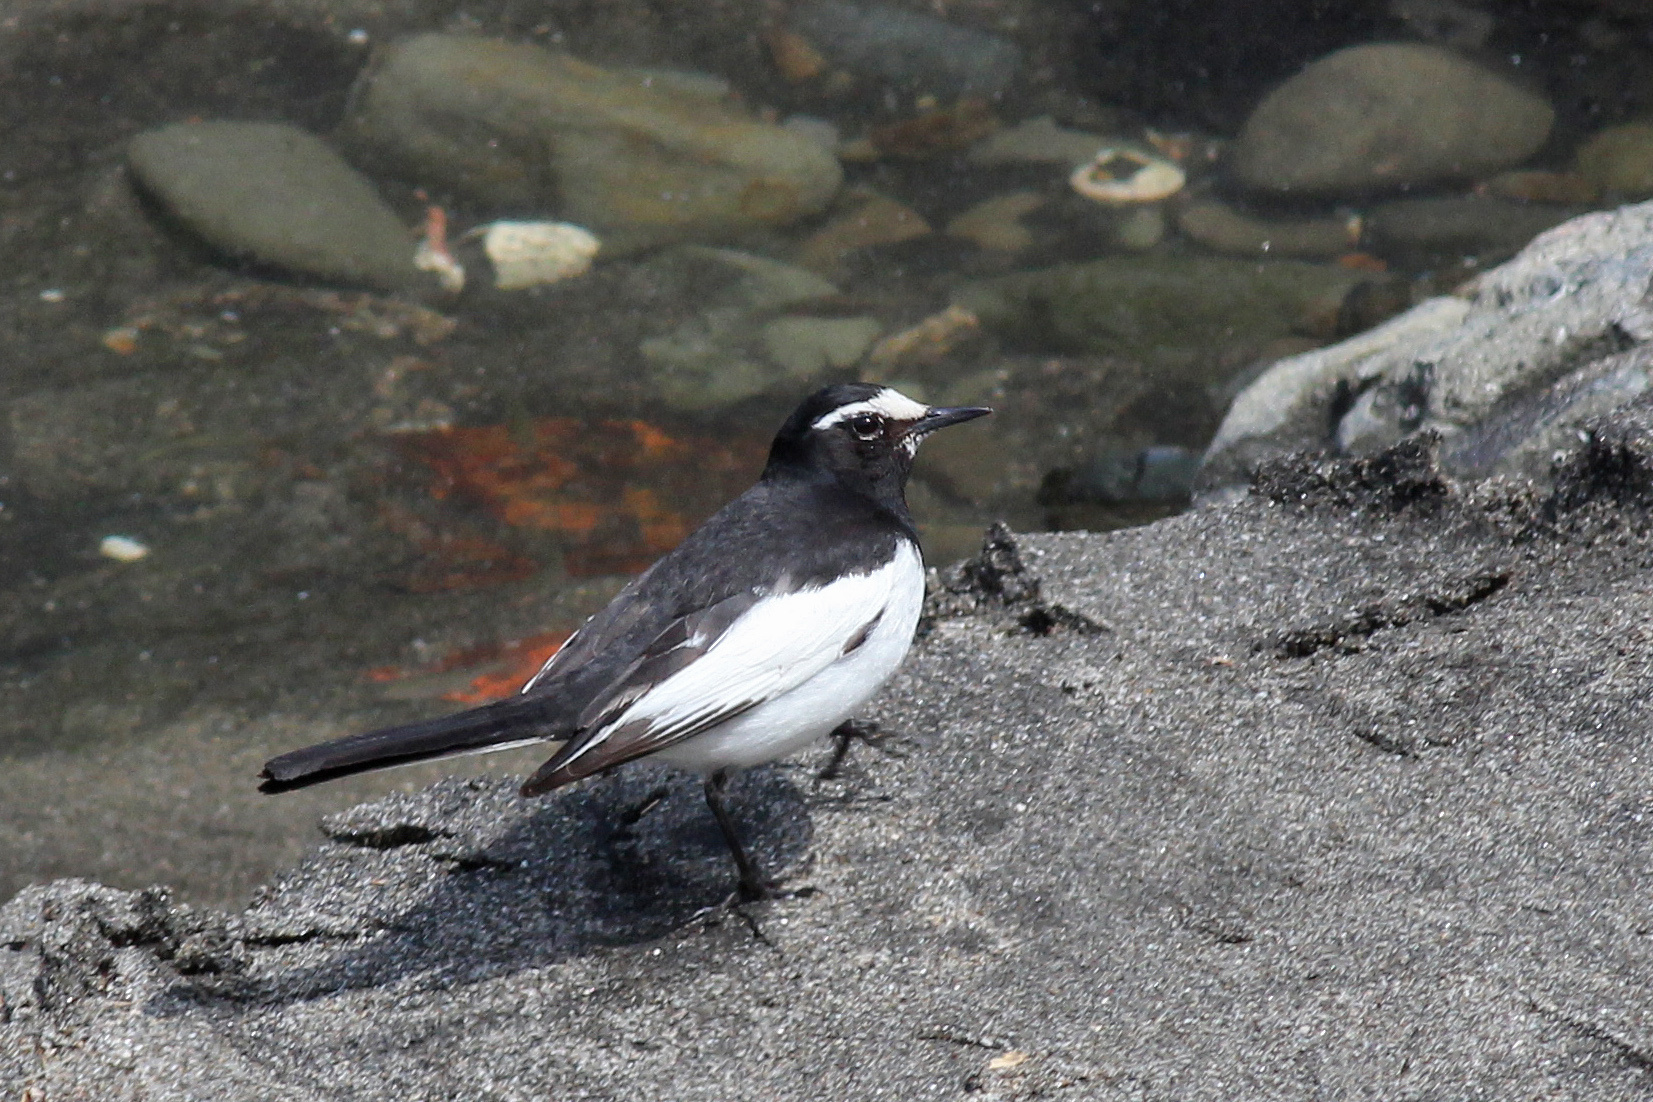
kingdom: Animalia
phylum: Chordata
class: Aves
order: Passeriformes
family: Motacillidae
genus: Motacilla
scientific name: Motacilla grandis
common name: Japanese wagtail
